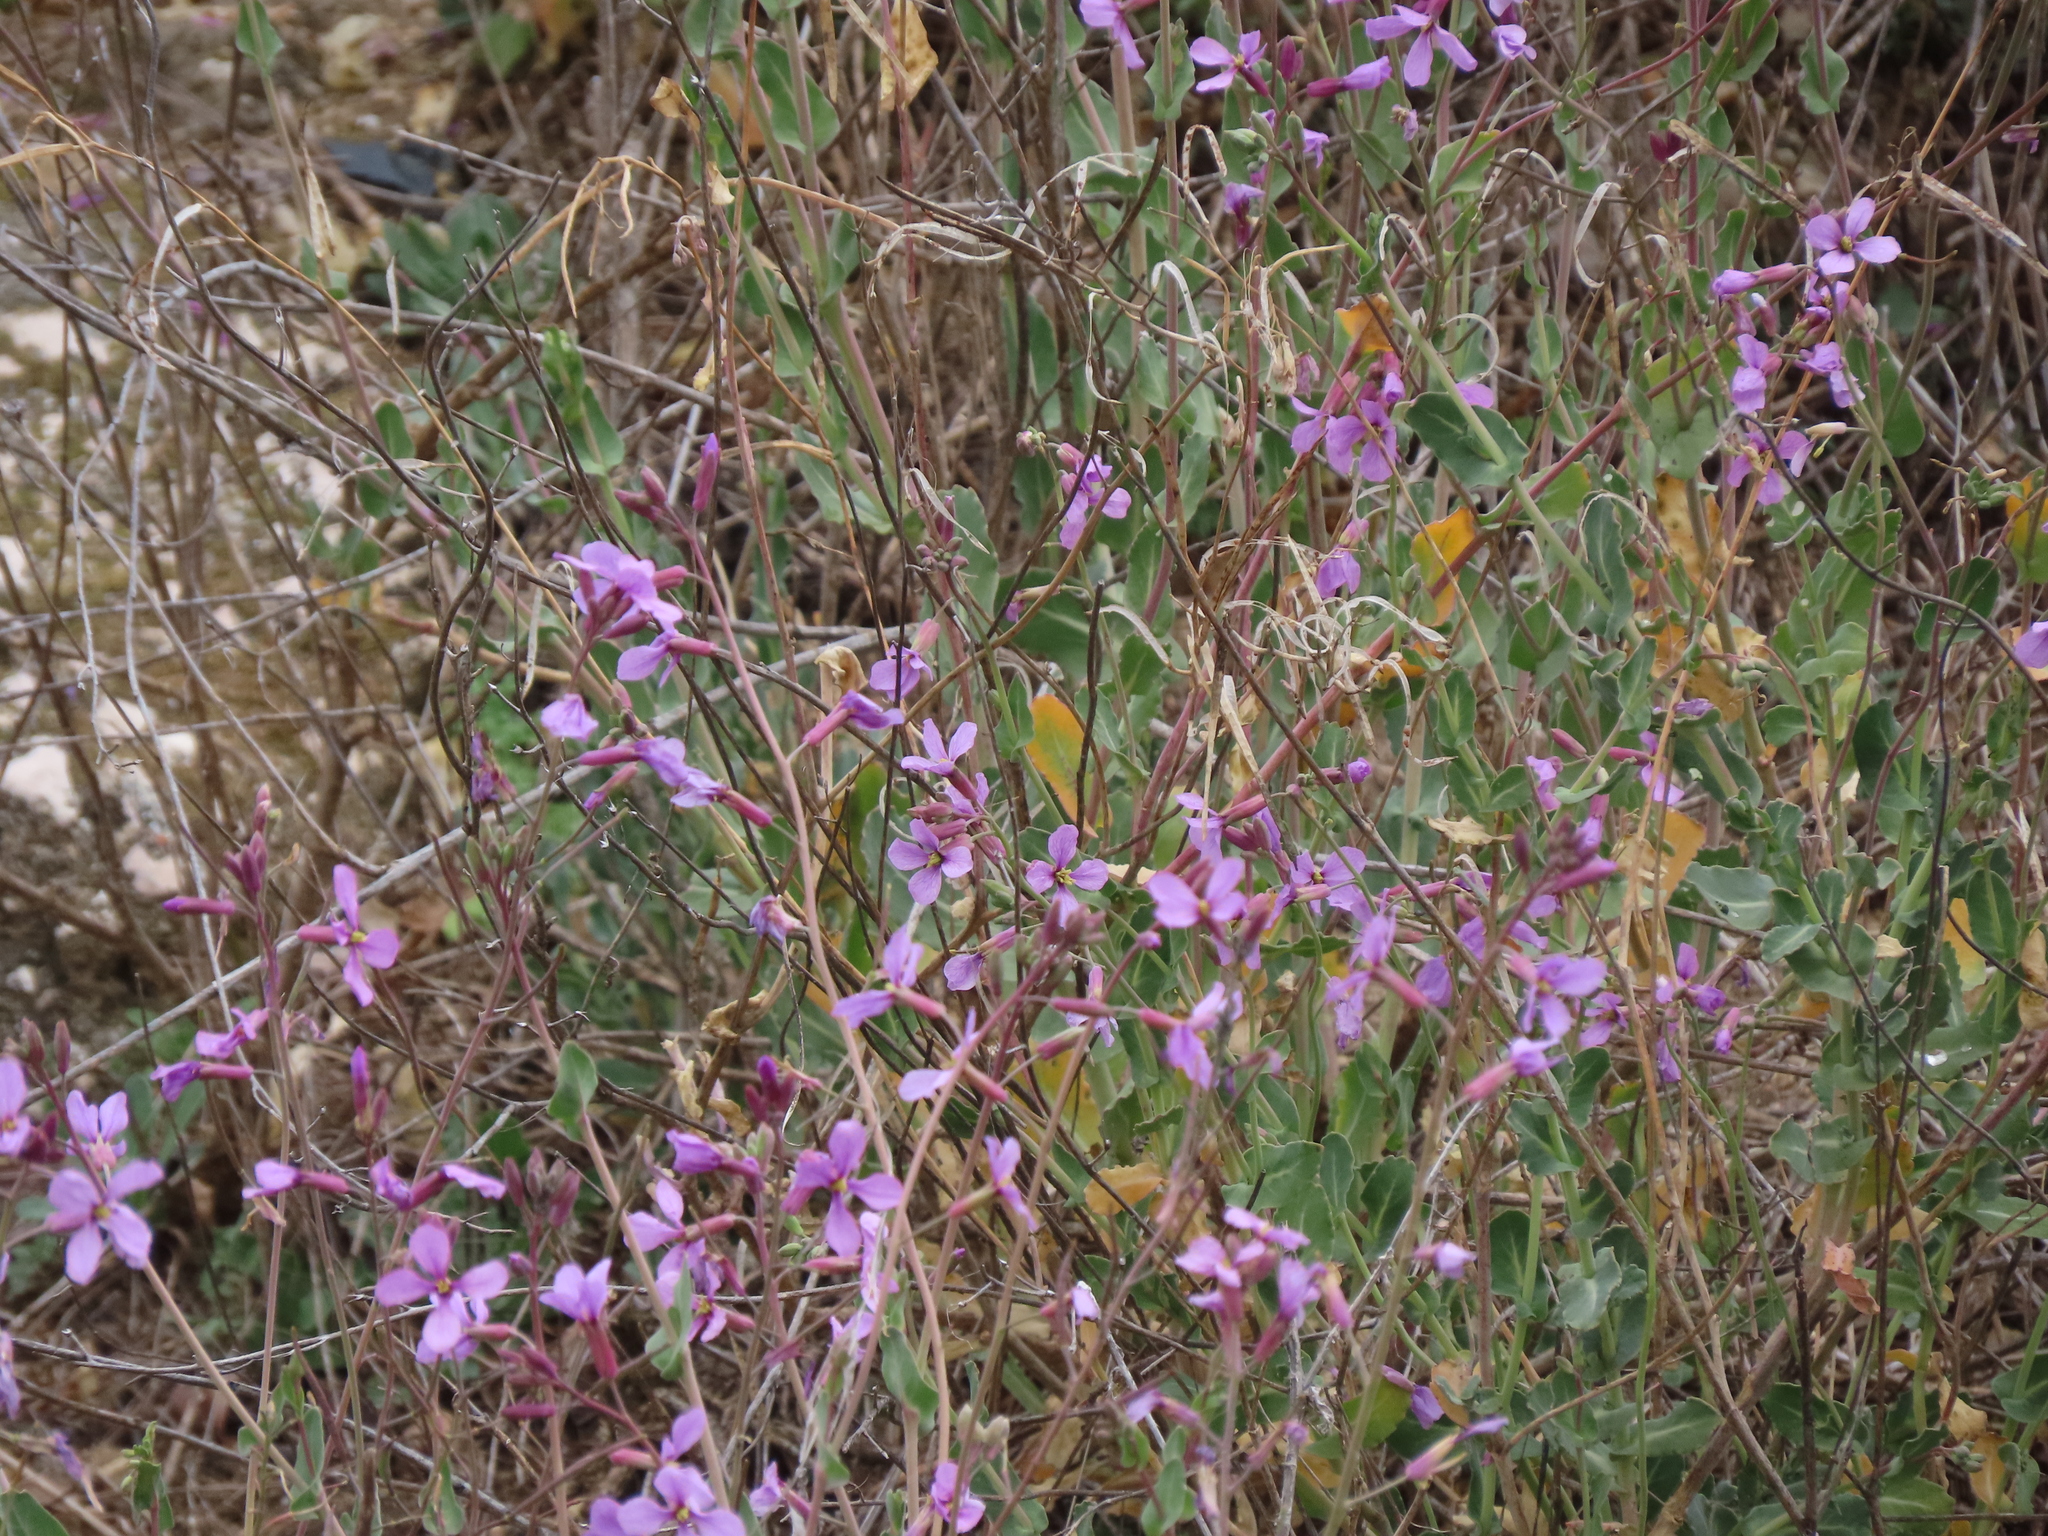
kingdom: Plantae
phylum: Tracheophyta
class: Magnoliopsida
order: Brassicales
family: Brassicaceae
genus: Moricandia
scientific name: Moricandia arvensis
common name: Purple mistress
